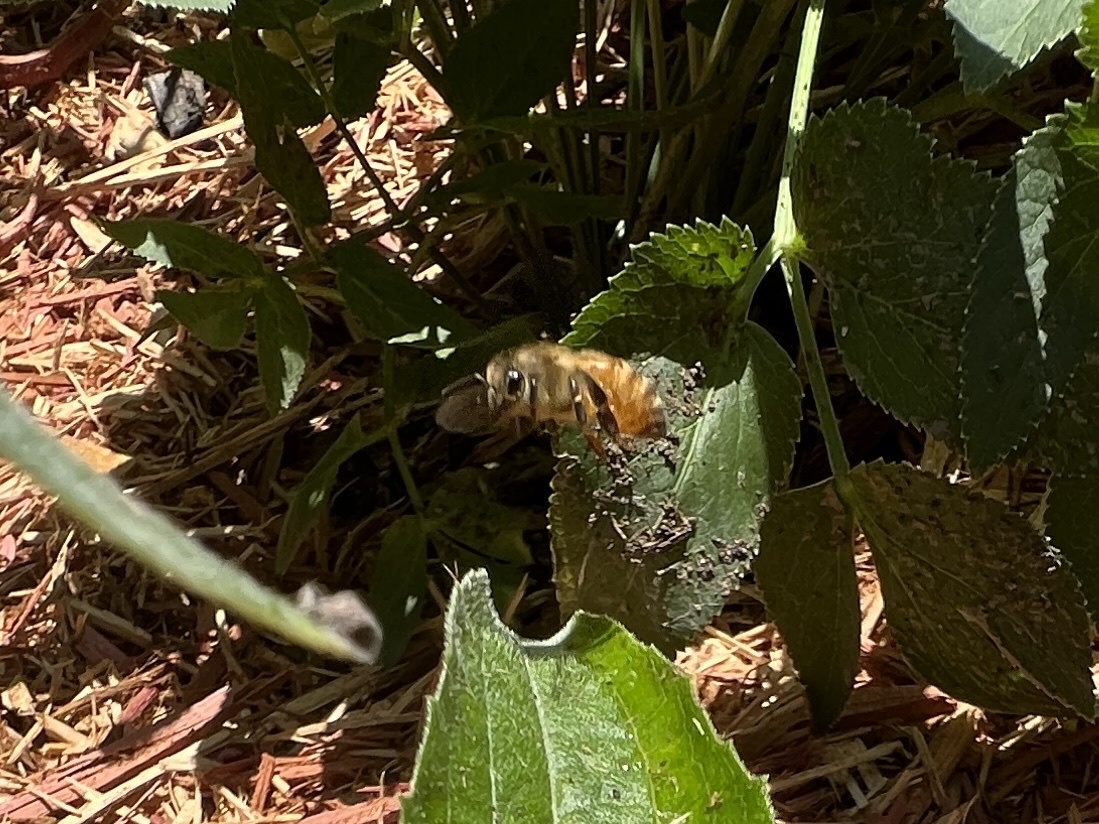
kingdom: Animalia
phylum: Arthropoda
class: Insecta
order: Hymenoptera
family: Apidae
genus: Apis
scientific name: Apis mellifera
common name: Honey bee
